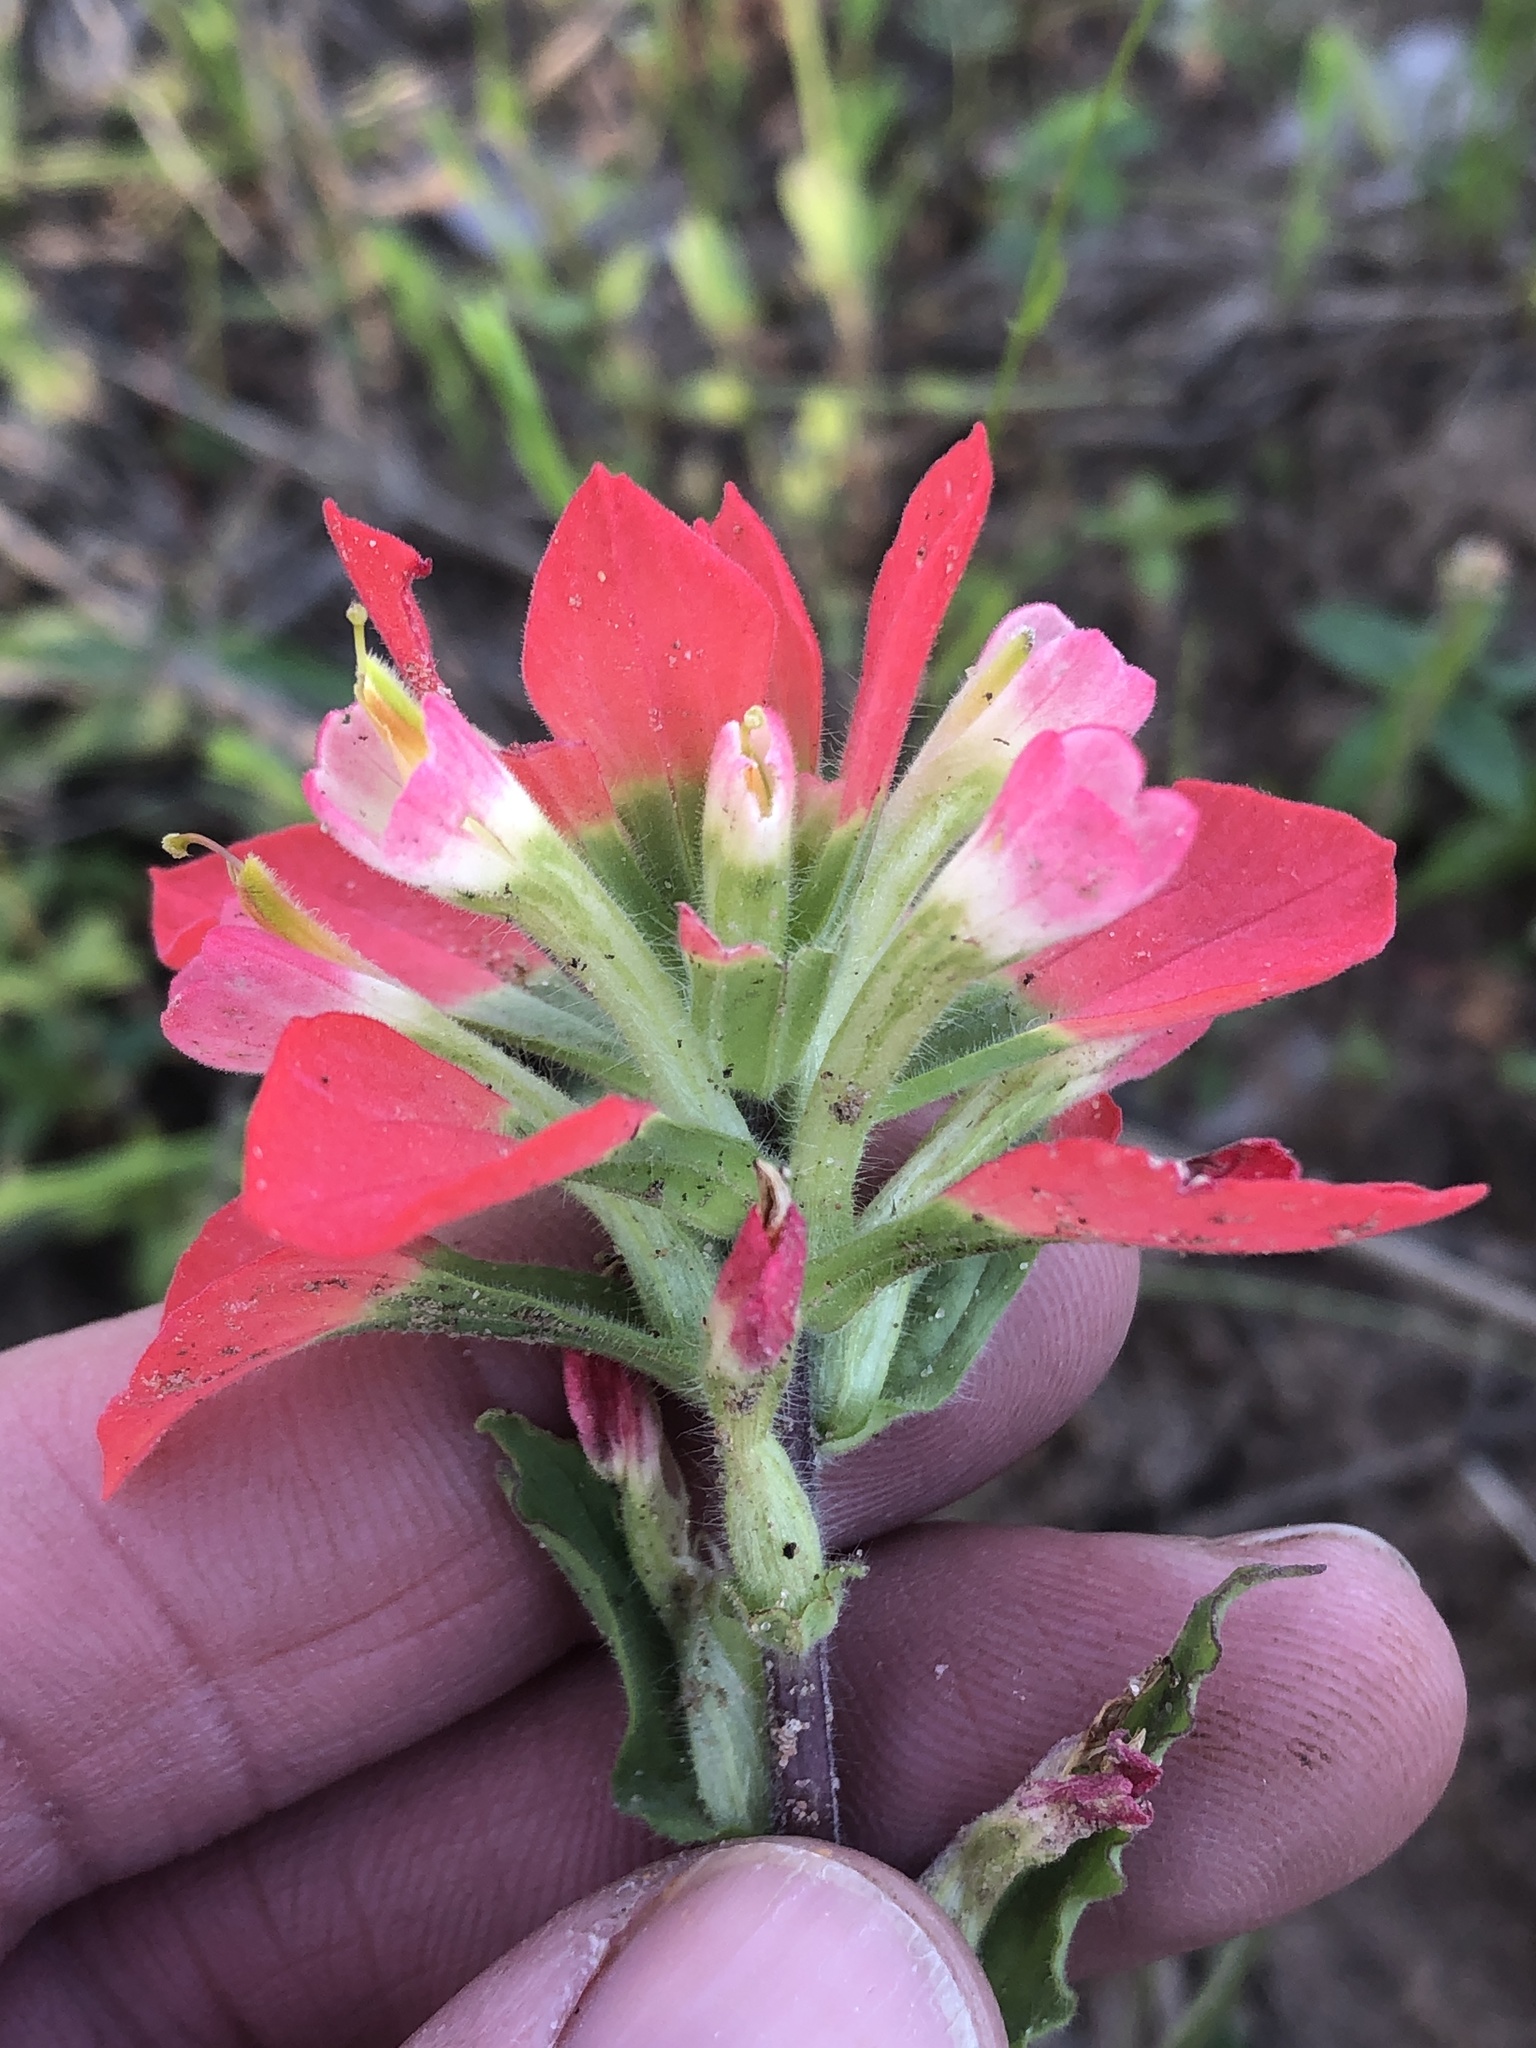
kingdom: Plantae
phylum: Tracheophyta
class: Magnoliopsida
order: Lamiales
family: Orobanchaceae
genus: Castilleja
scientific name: Castilleja indivisa
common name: Texas paintbrush
